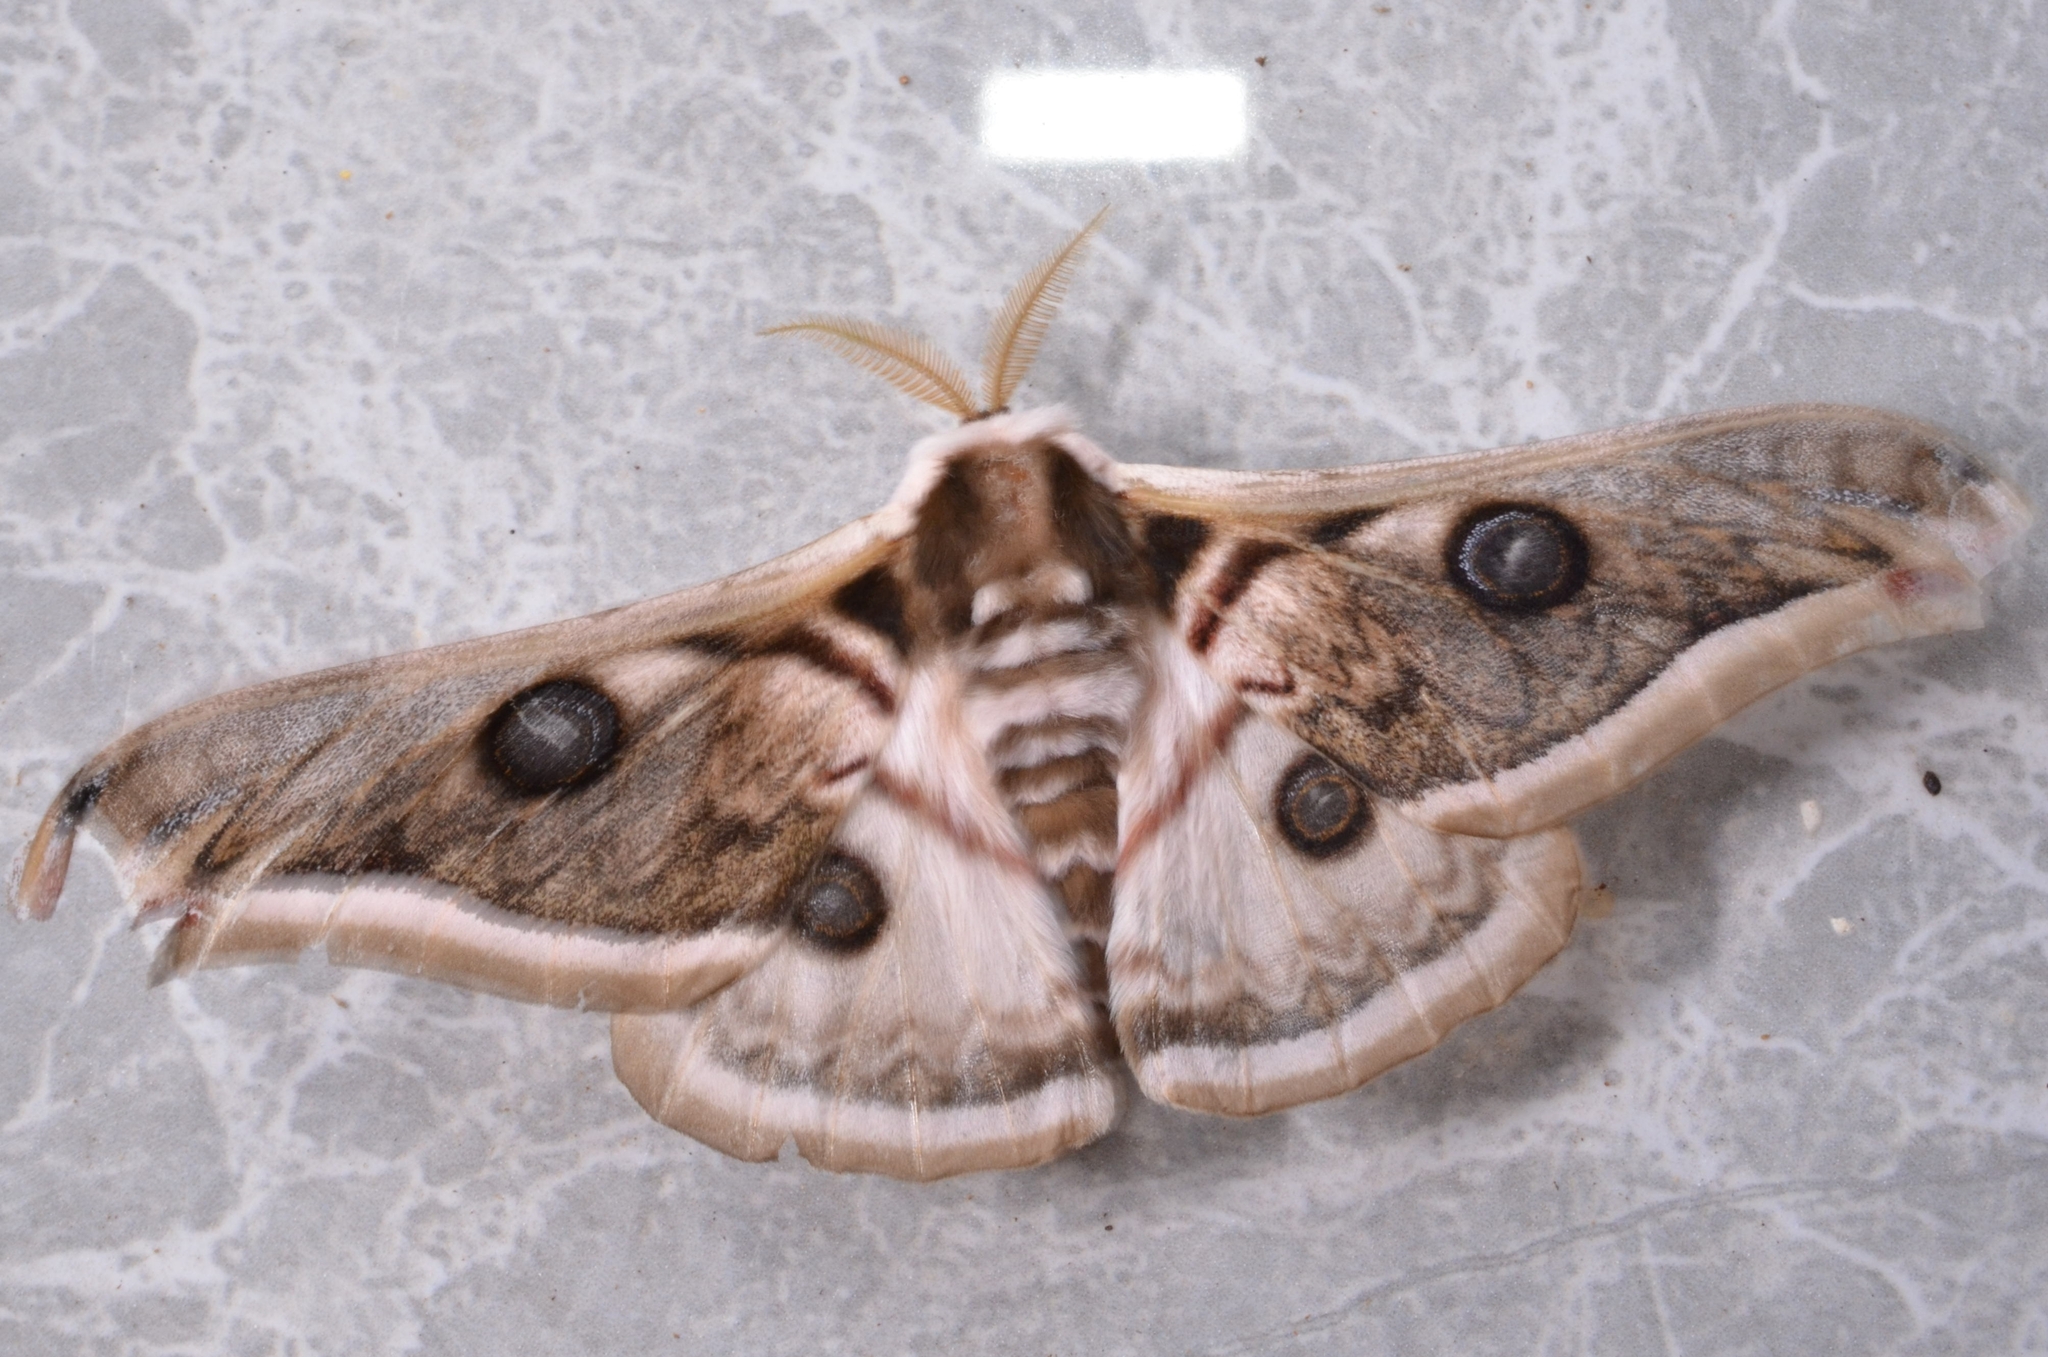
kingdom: Animalia
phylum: Arthropoda
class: Insecta
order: Lepidoptera
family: Saturniidae
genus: Saturnia
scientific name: Saturnia pyretorum
